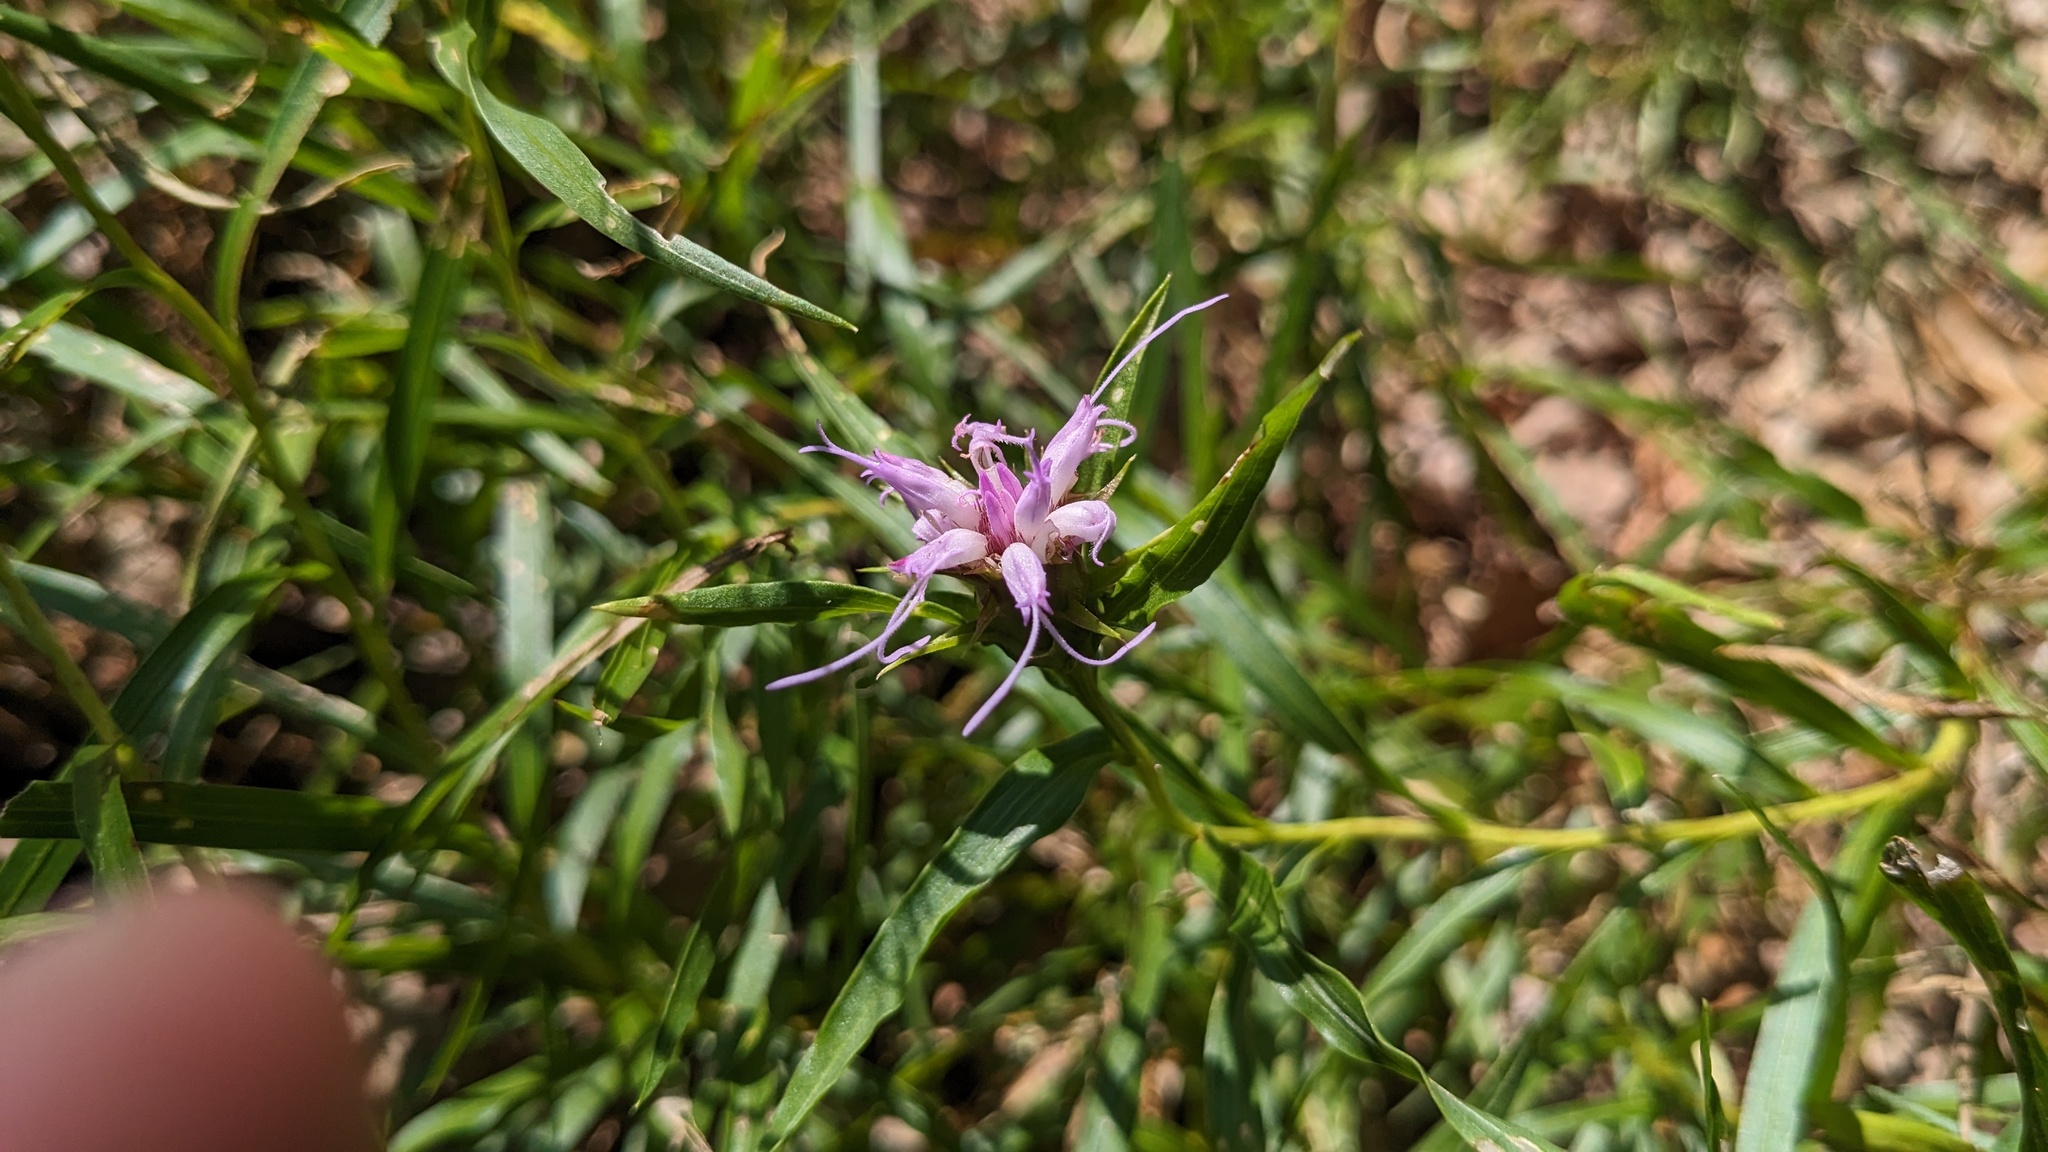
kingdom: Plantae
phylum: Tracheophyta
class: Magnoliopsida
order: Asterales
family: Asteraceae
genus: Liatris
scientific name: Liatris compacta
